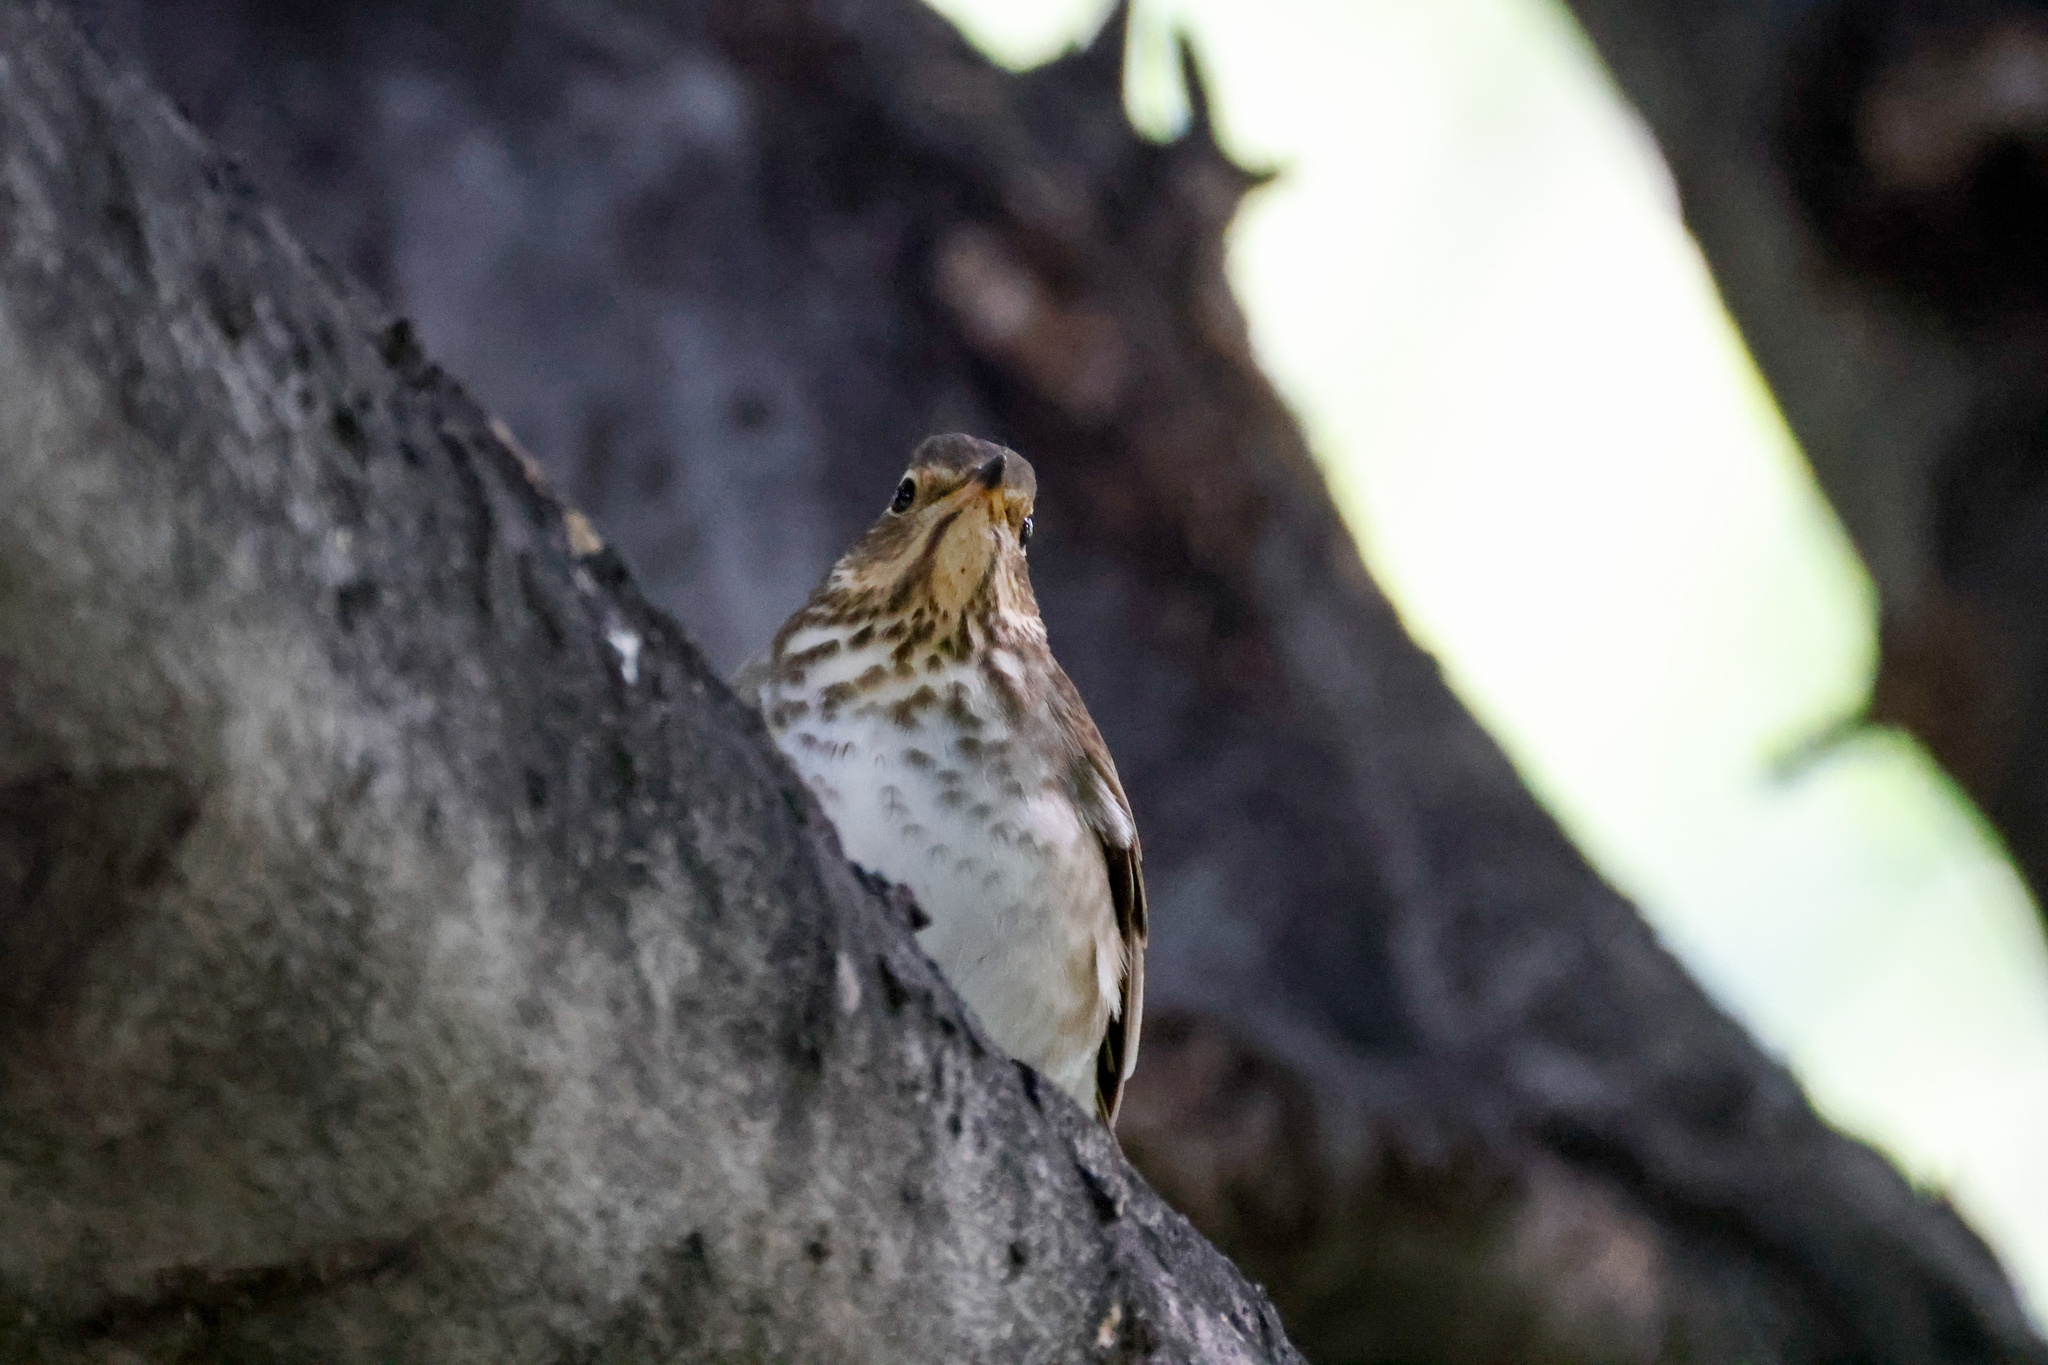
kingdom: Animalia
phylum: Chordata
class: Aves
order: Passeriformes
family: Turdidae
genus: Catharus
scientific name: Catharus ustulatus
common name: Swainson's thrush
